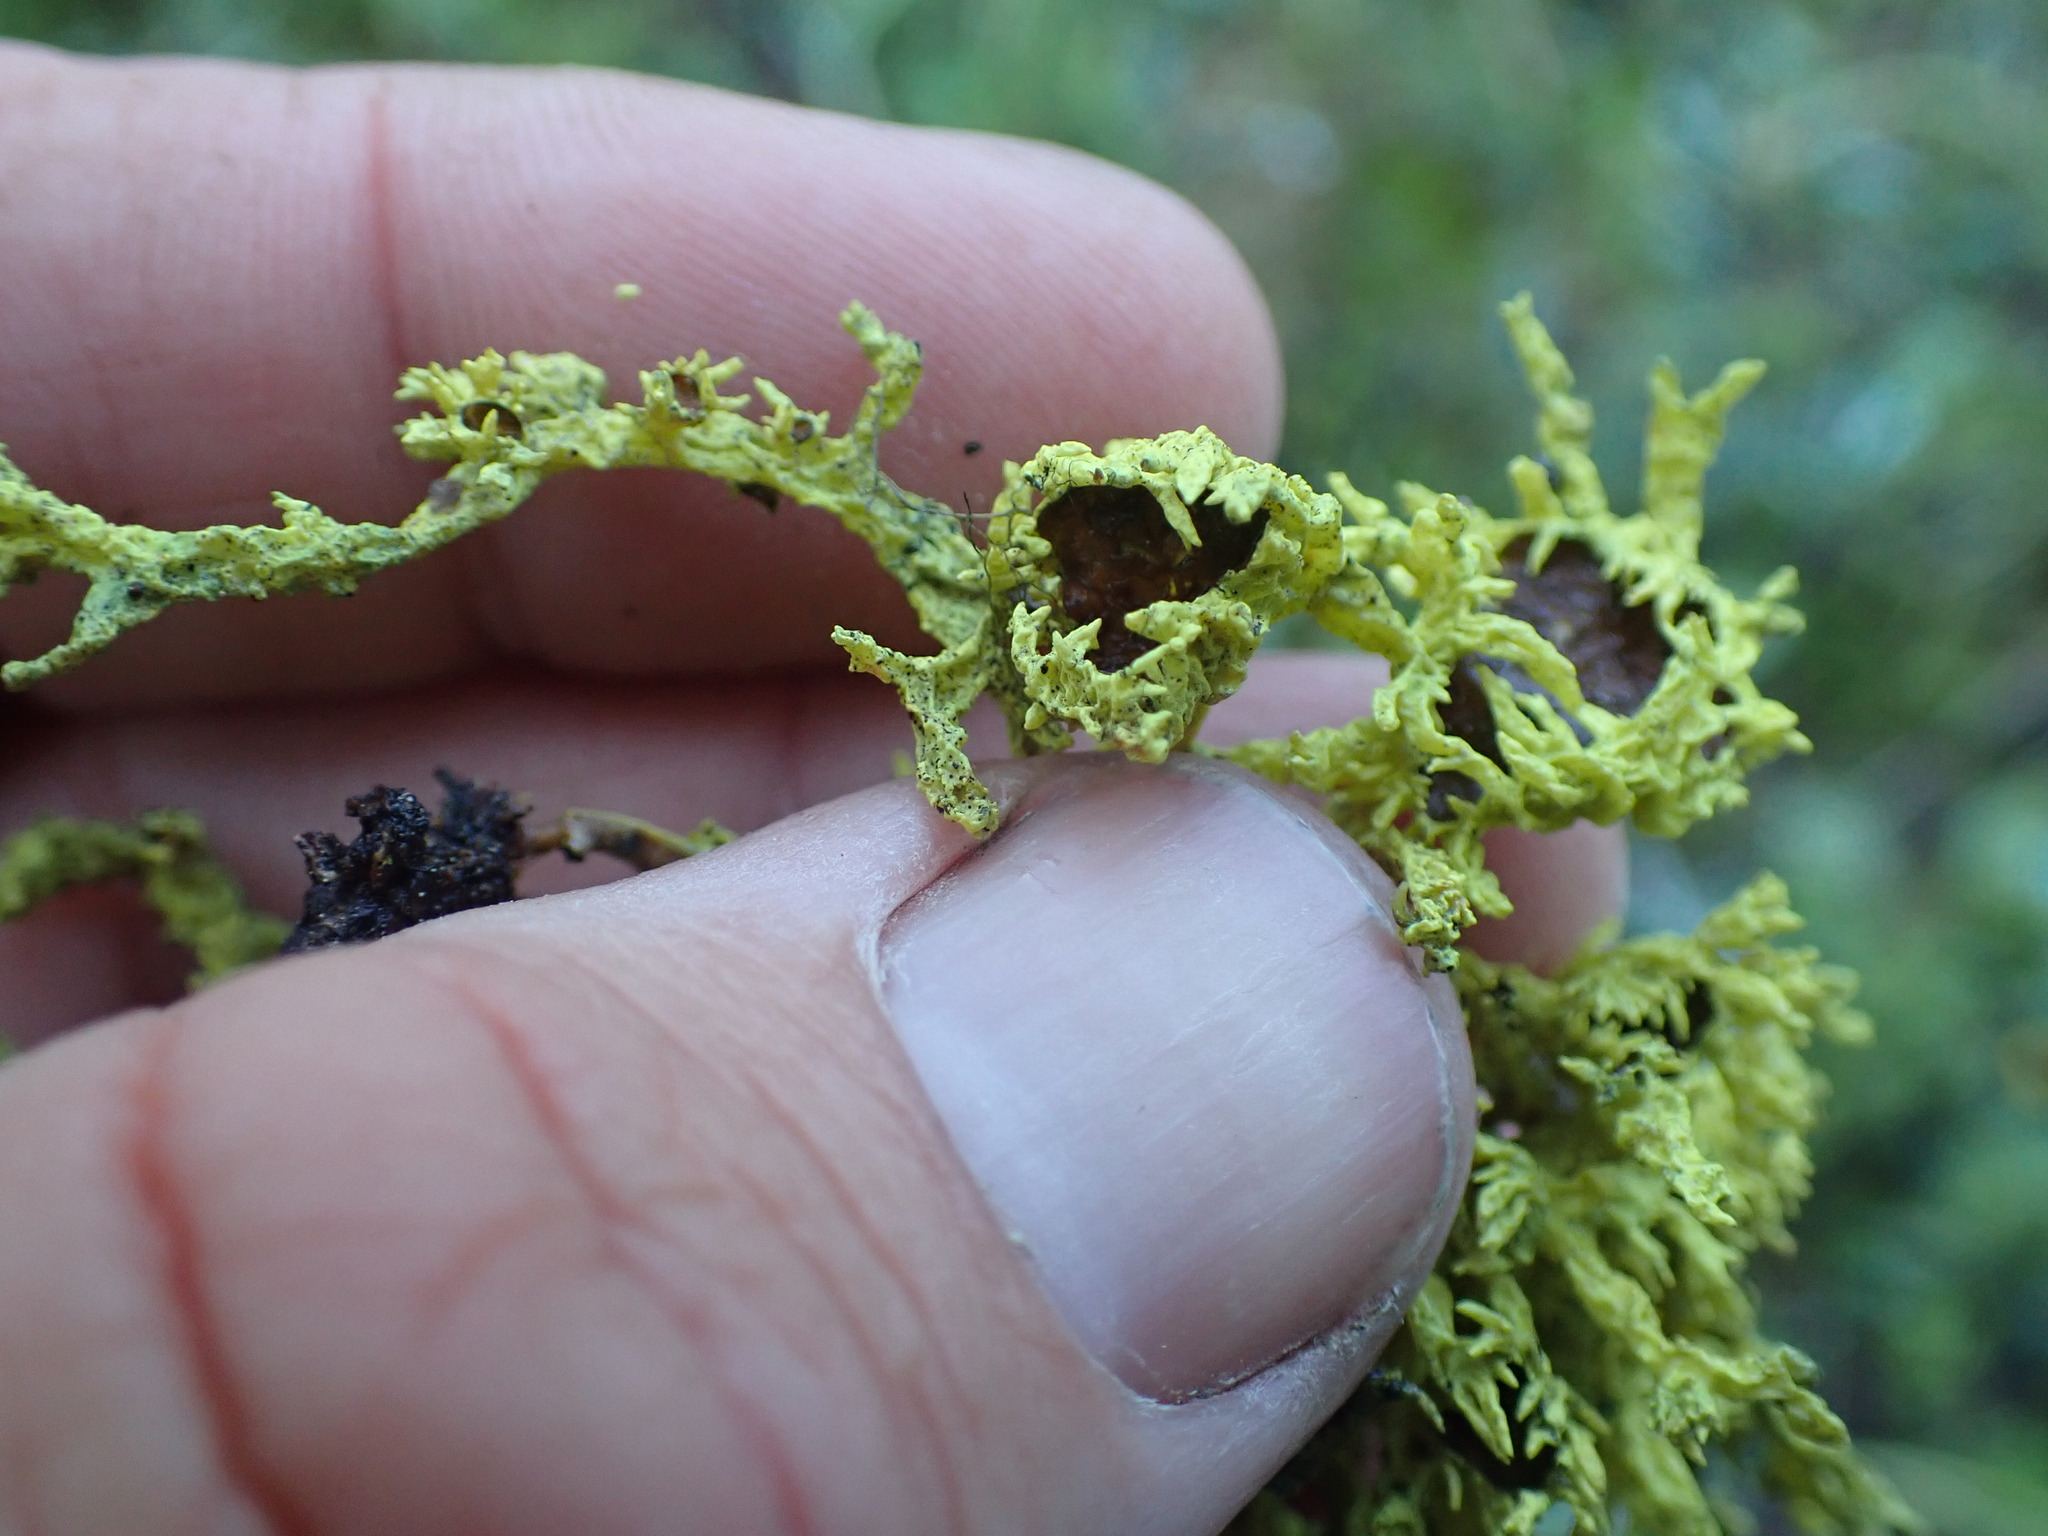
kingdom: Fungi
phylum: Ascomycota
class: Lecanoromycetes
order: Lecanorales
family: Parmeliaceae
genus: Letharia
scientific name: Letharia columbiana
